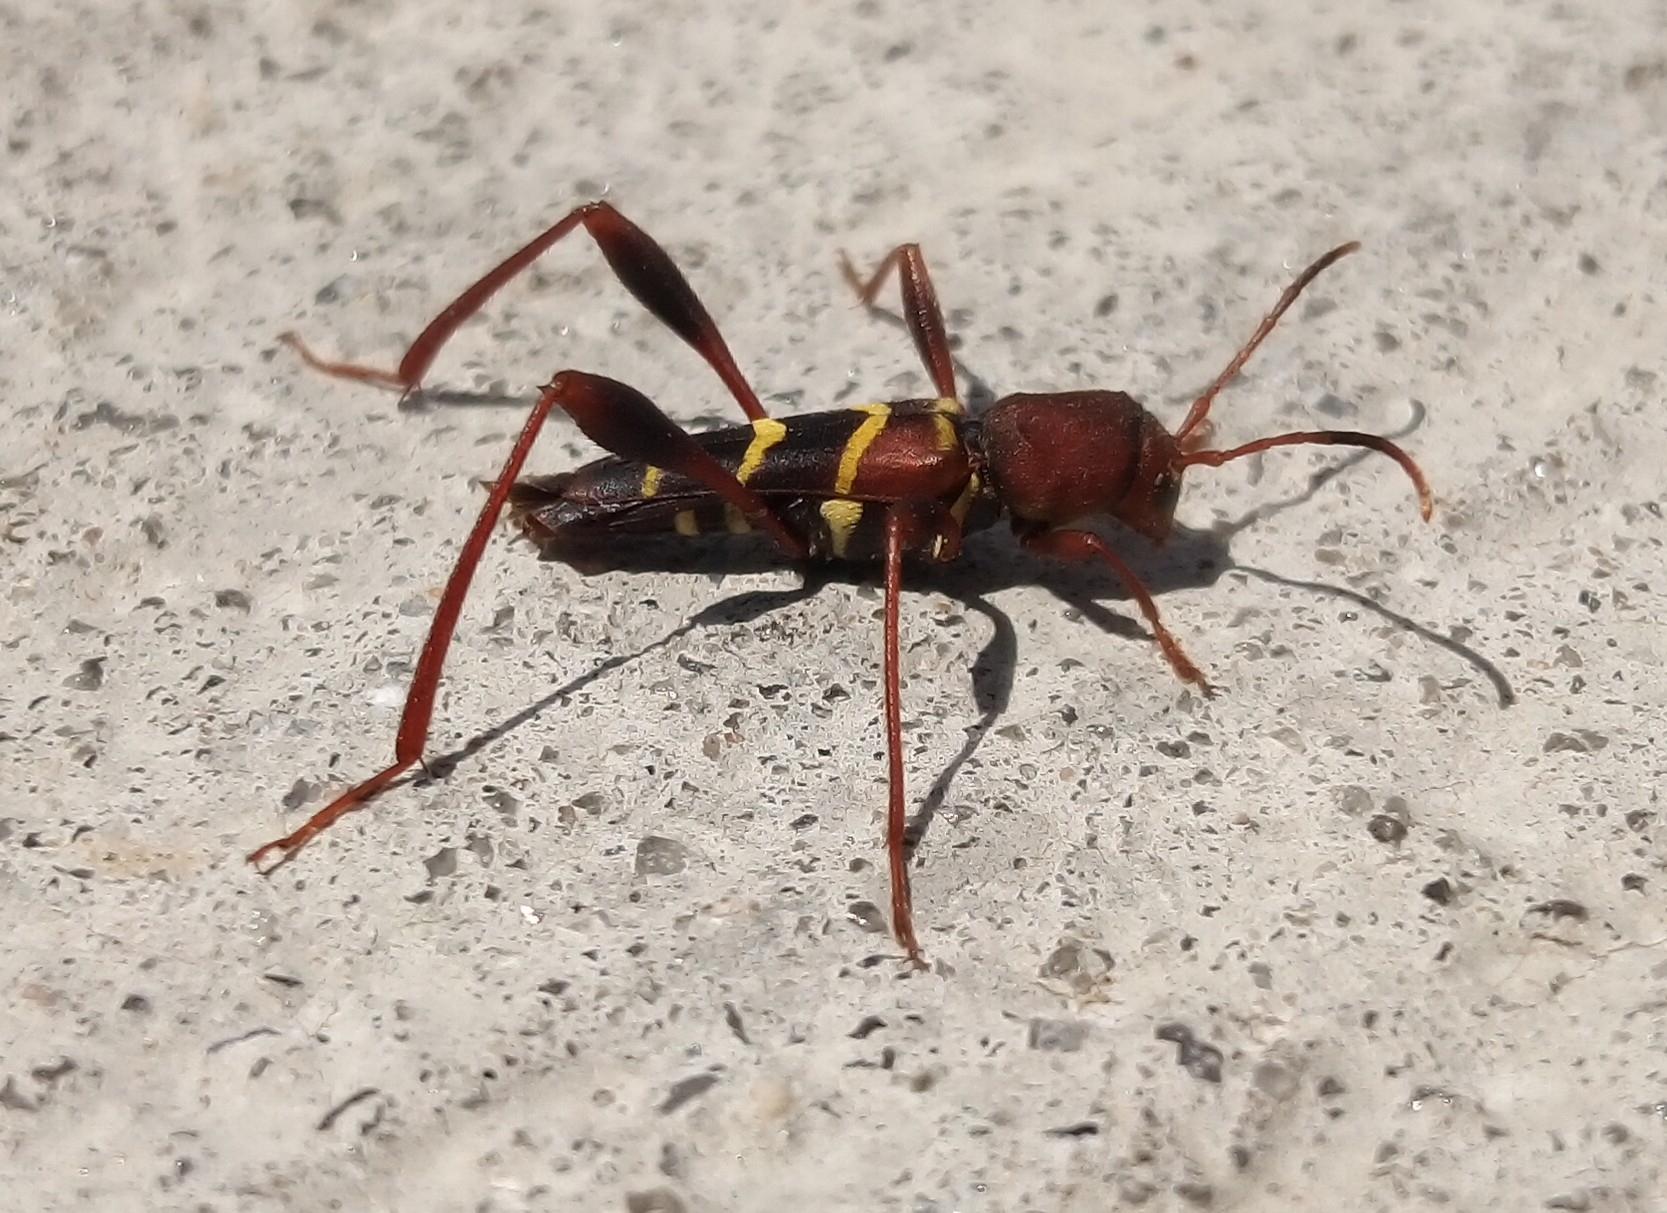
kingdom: Animalia
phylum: Arthropoda
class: Insecta
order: Coleoptera
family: Cerambycidae
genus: Neoclytus
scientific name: Neoclytus acuminatus
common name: Read-headed ash borer
